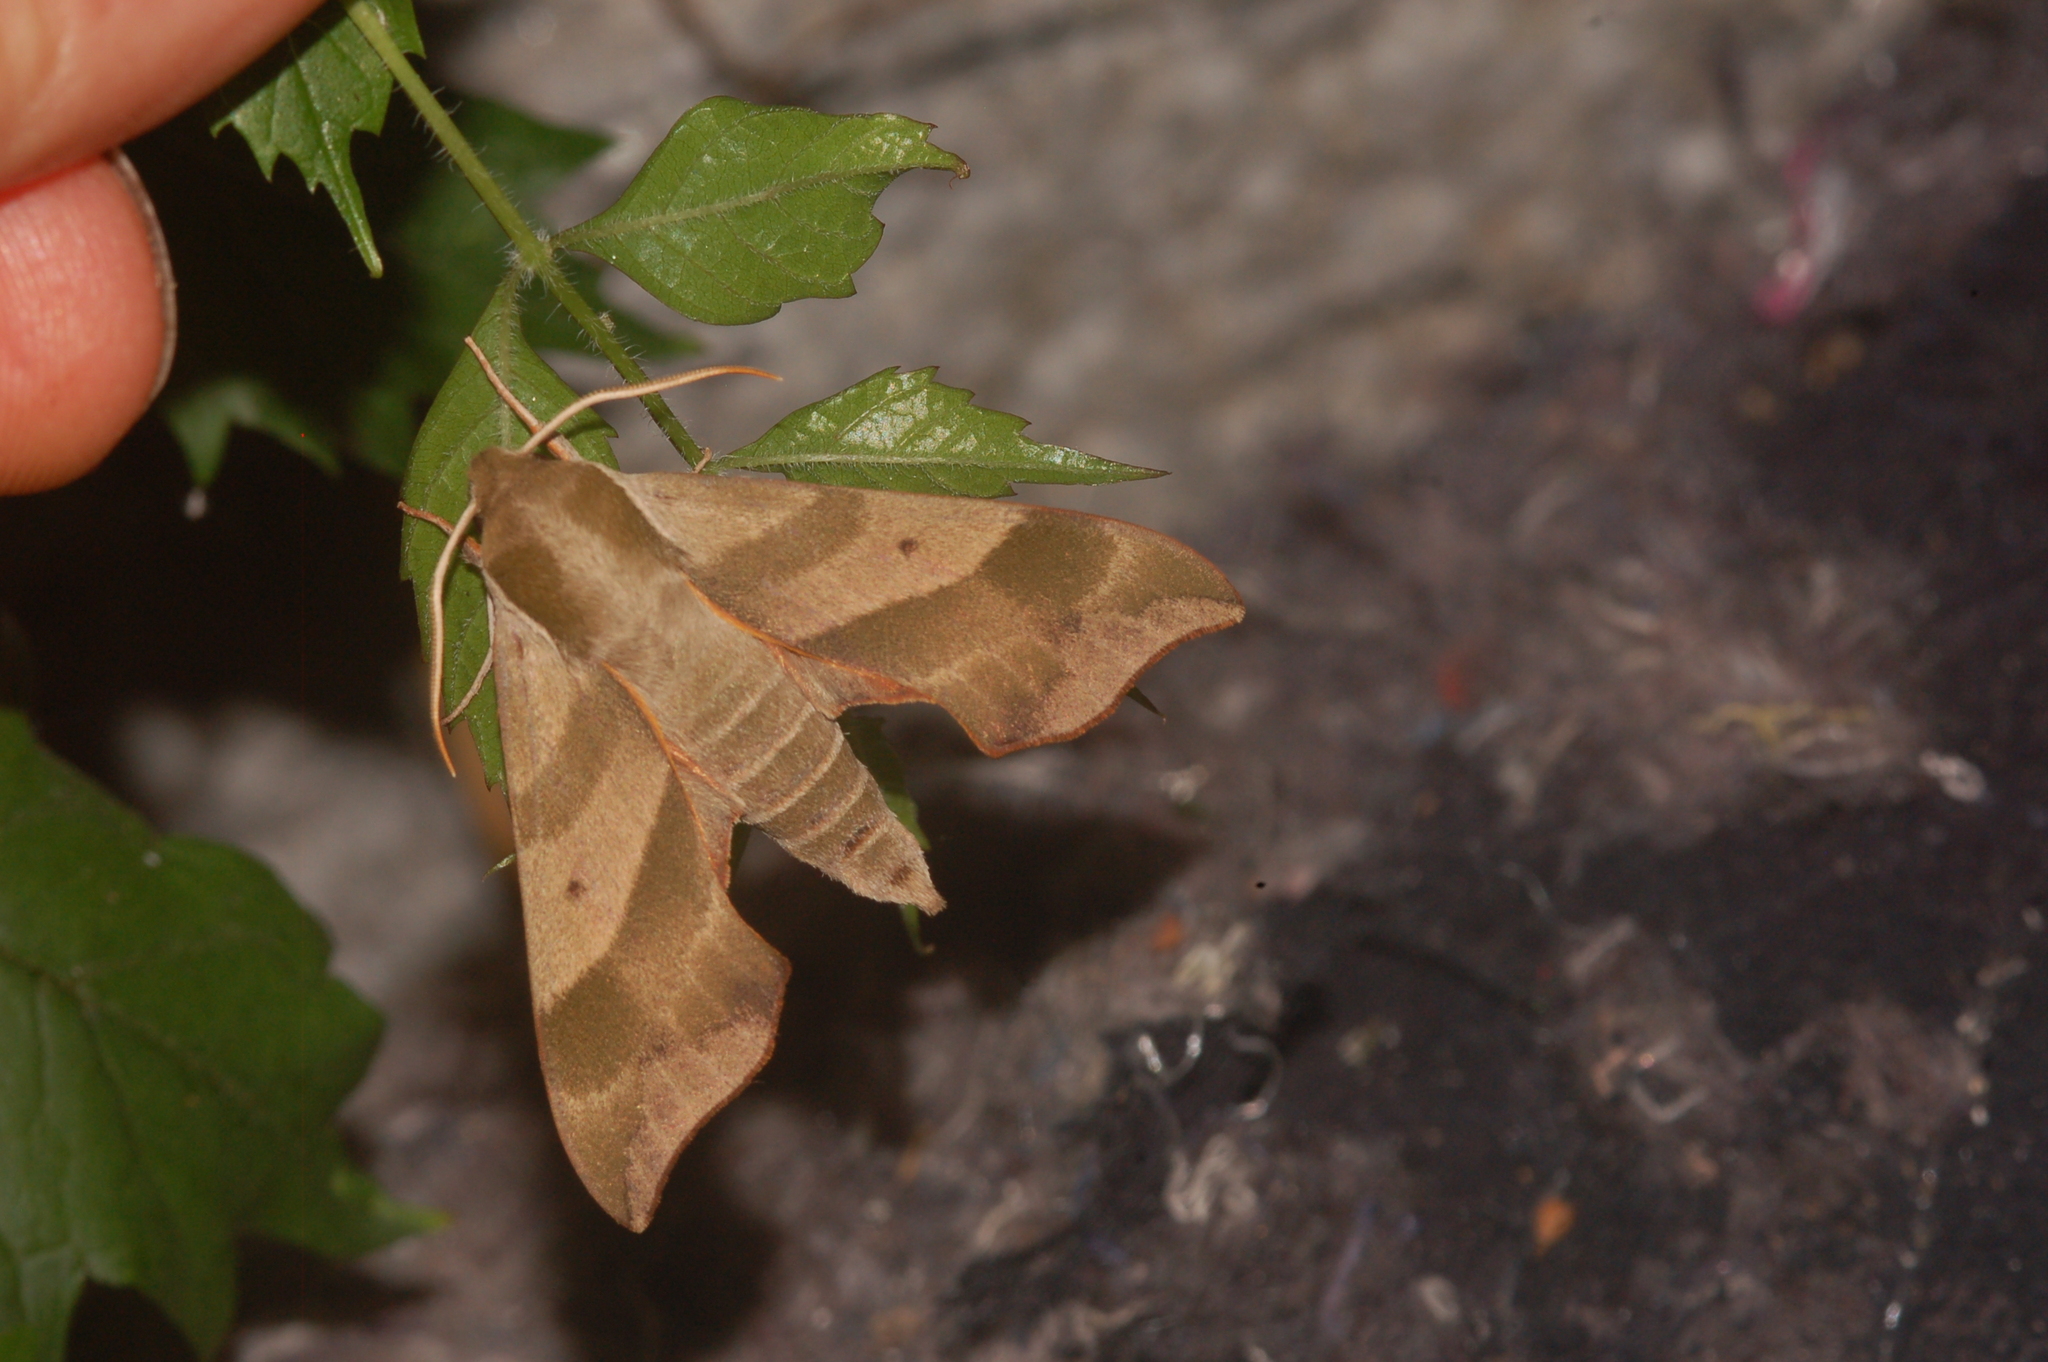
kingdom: Animalia
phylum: Arthropoda
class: Insecta
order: Lepidoptera
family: Sphingidae
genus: Darapsa
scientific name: Darapsa myron
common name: Hog sphinx
